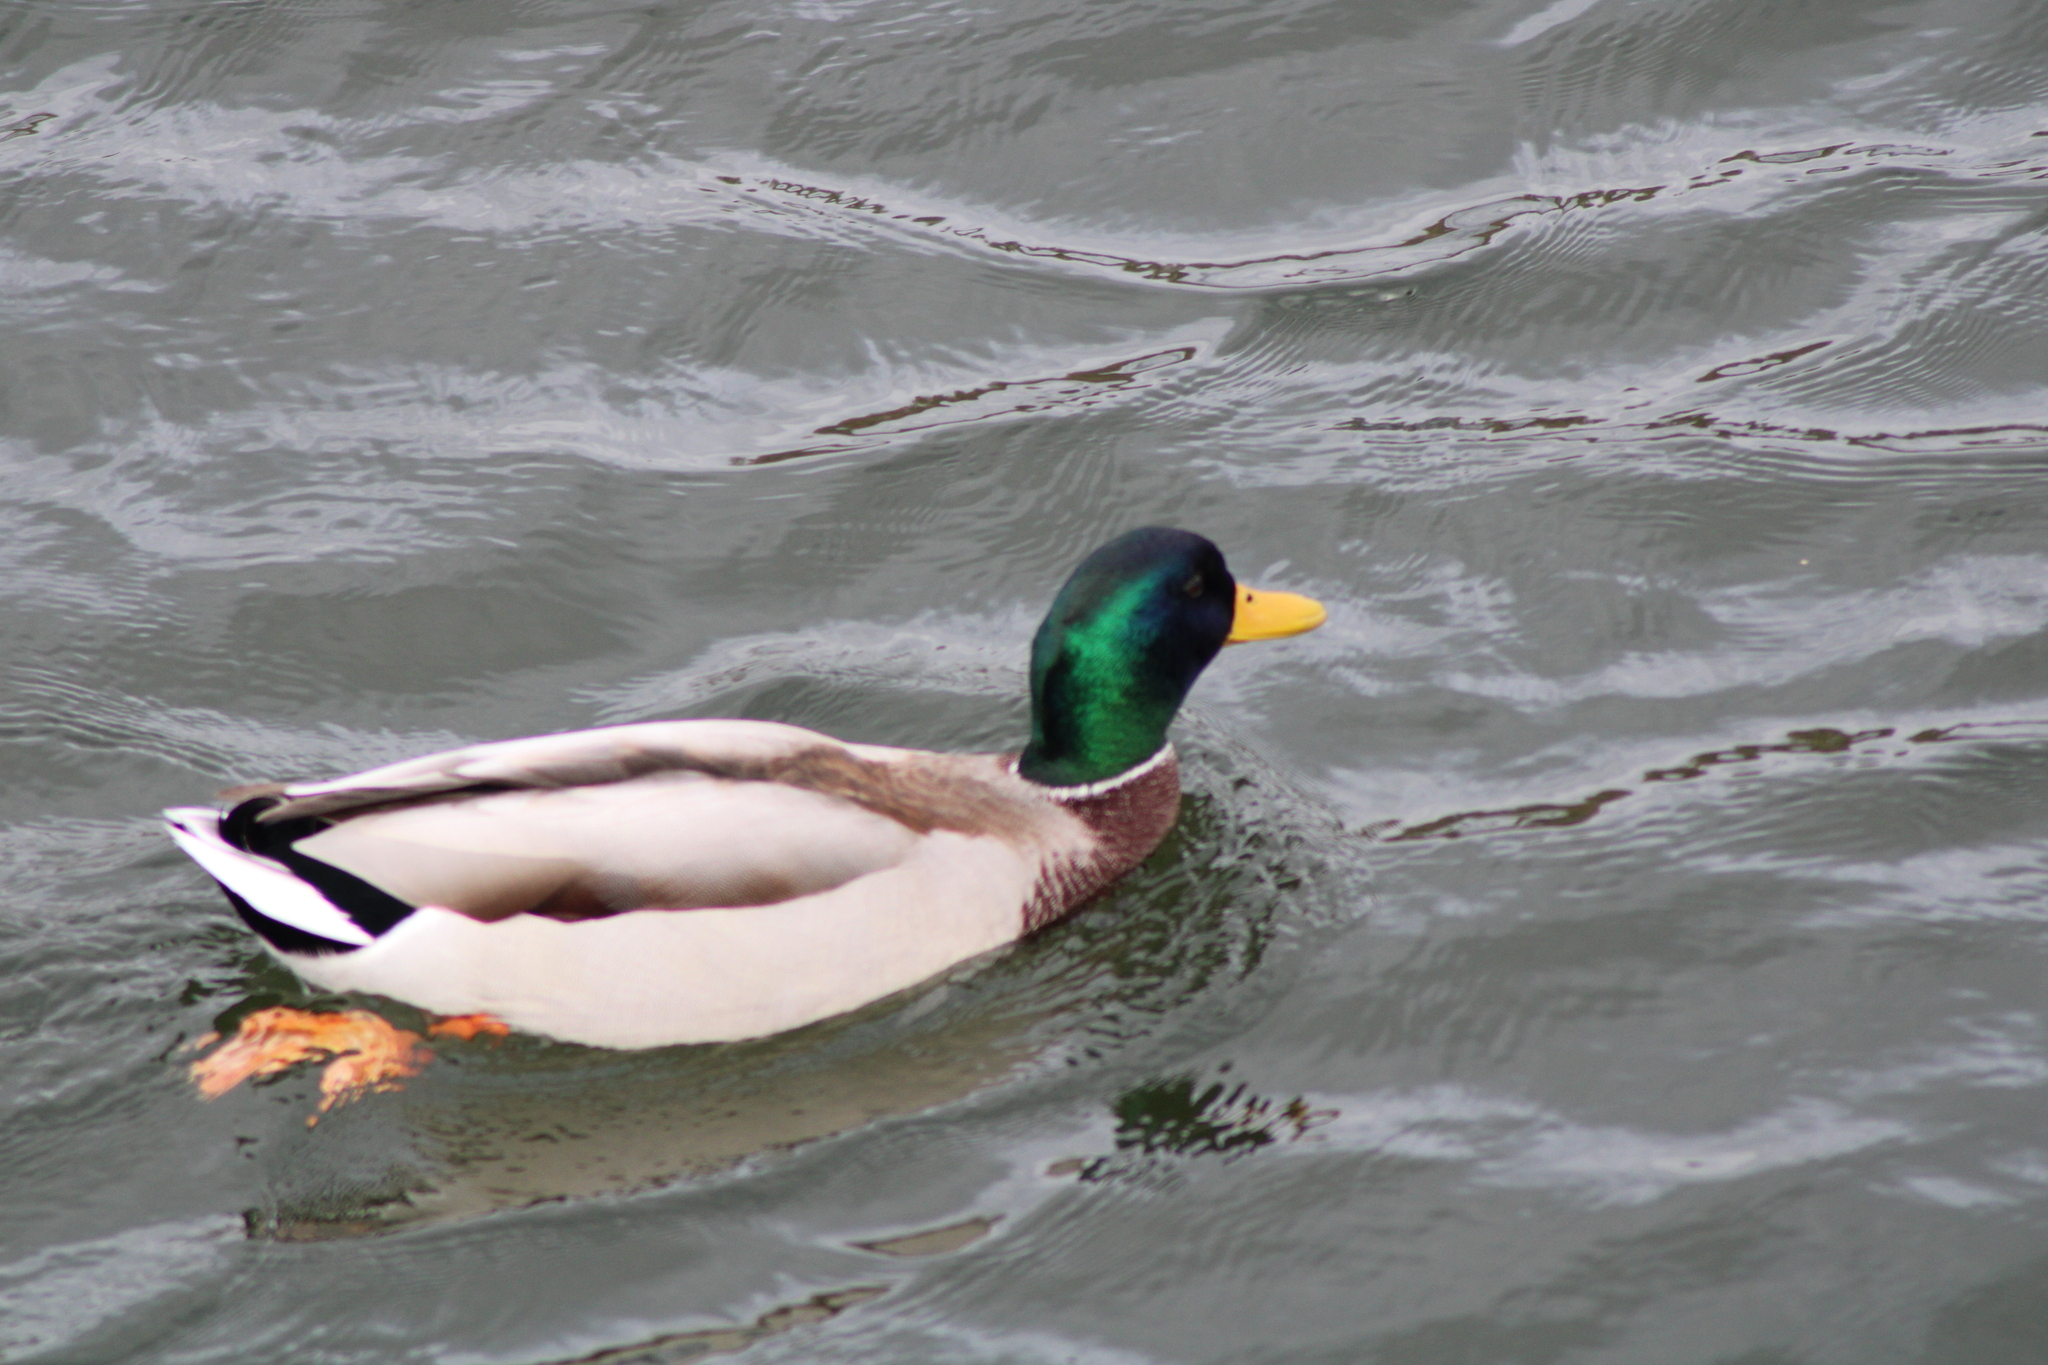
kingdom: Animalia
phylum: Chordata
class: Aves
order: Anseriformes
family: Anatidae
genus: Anas
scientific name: Anas platyrhynchos
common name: Mallard
